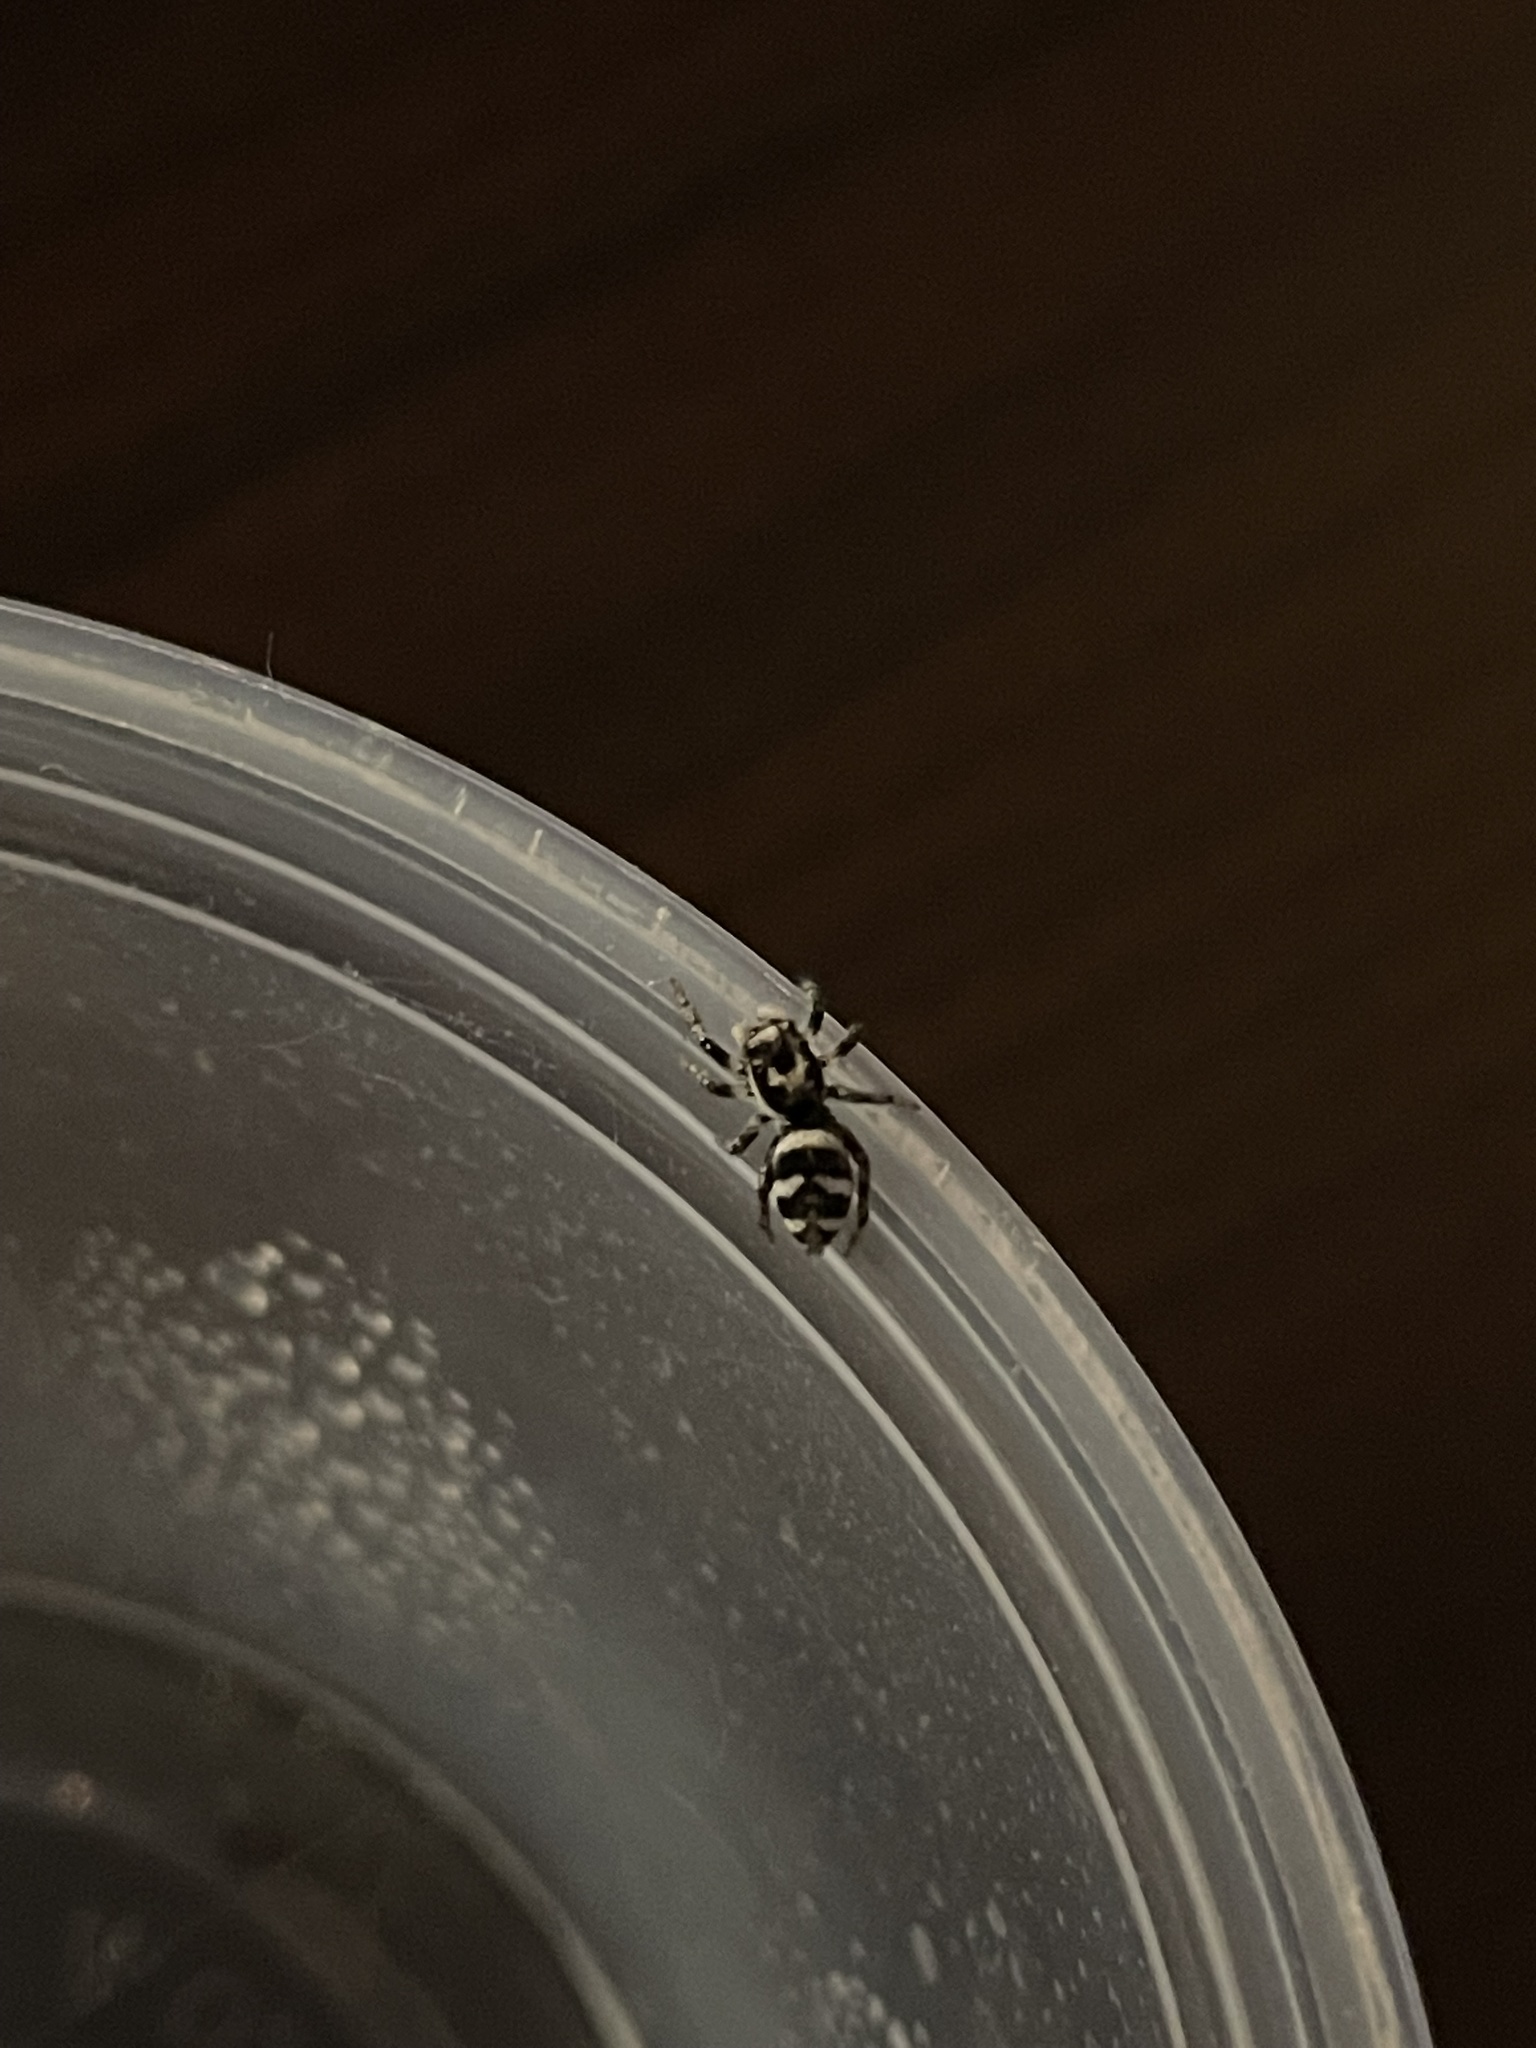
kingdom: Animalia
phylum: Arthropoda
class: Arachnida
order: Araneae
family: Salticidae
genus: Salticus
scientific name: Salticus scenicus
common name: Zebra jumper
